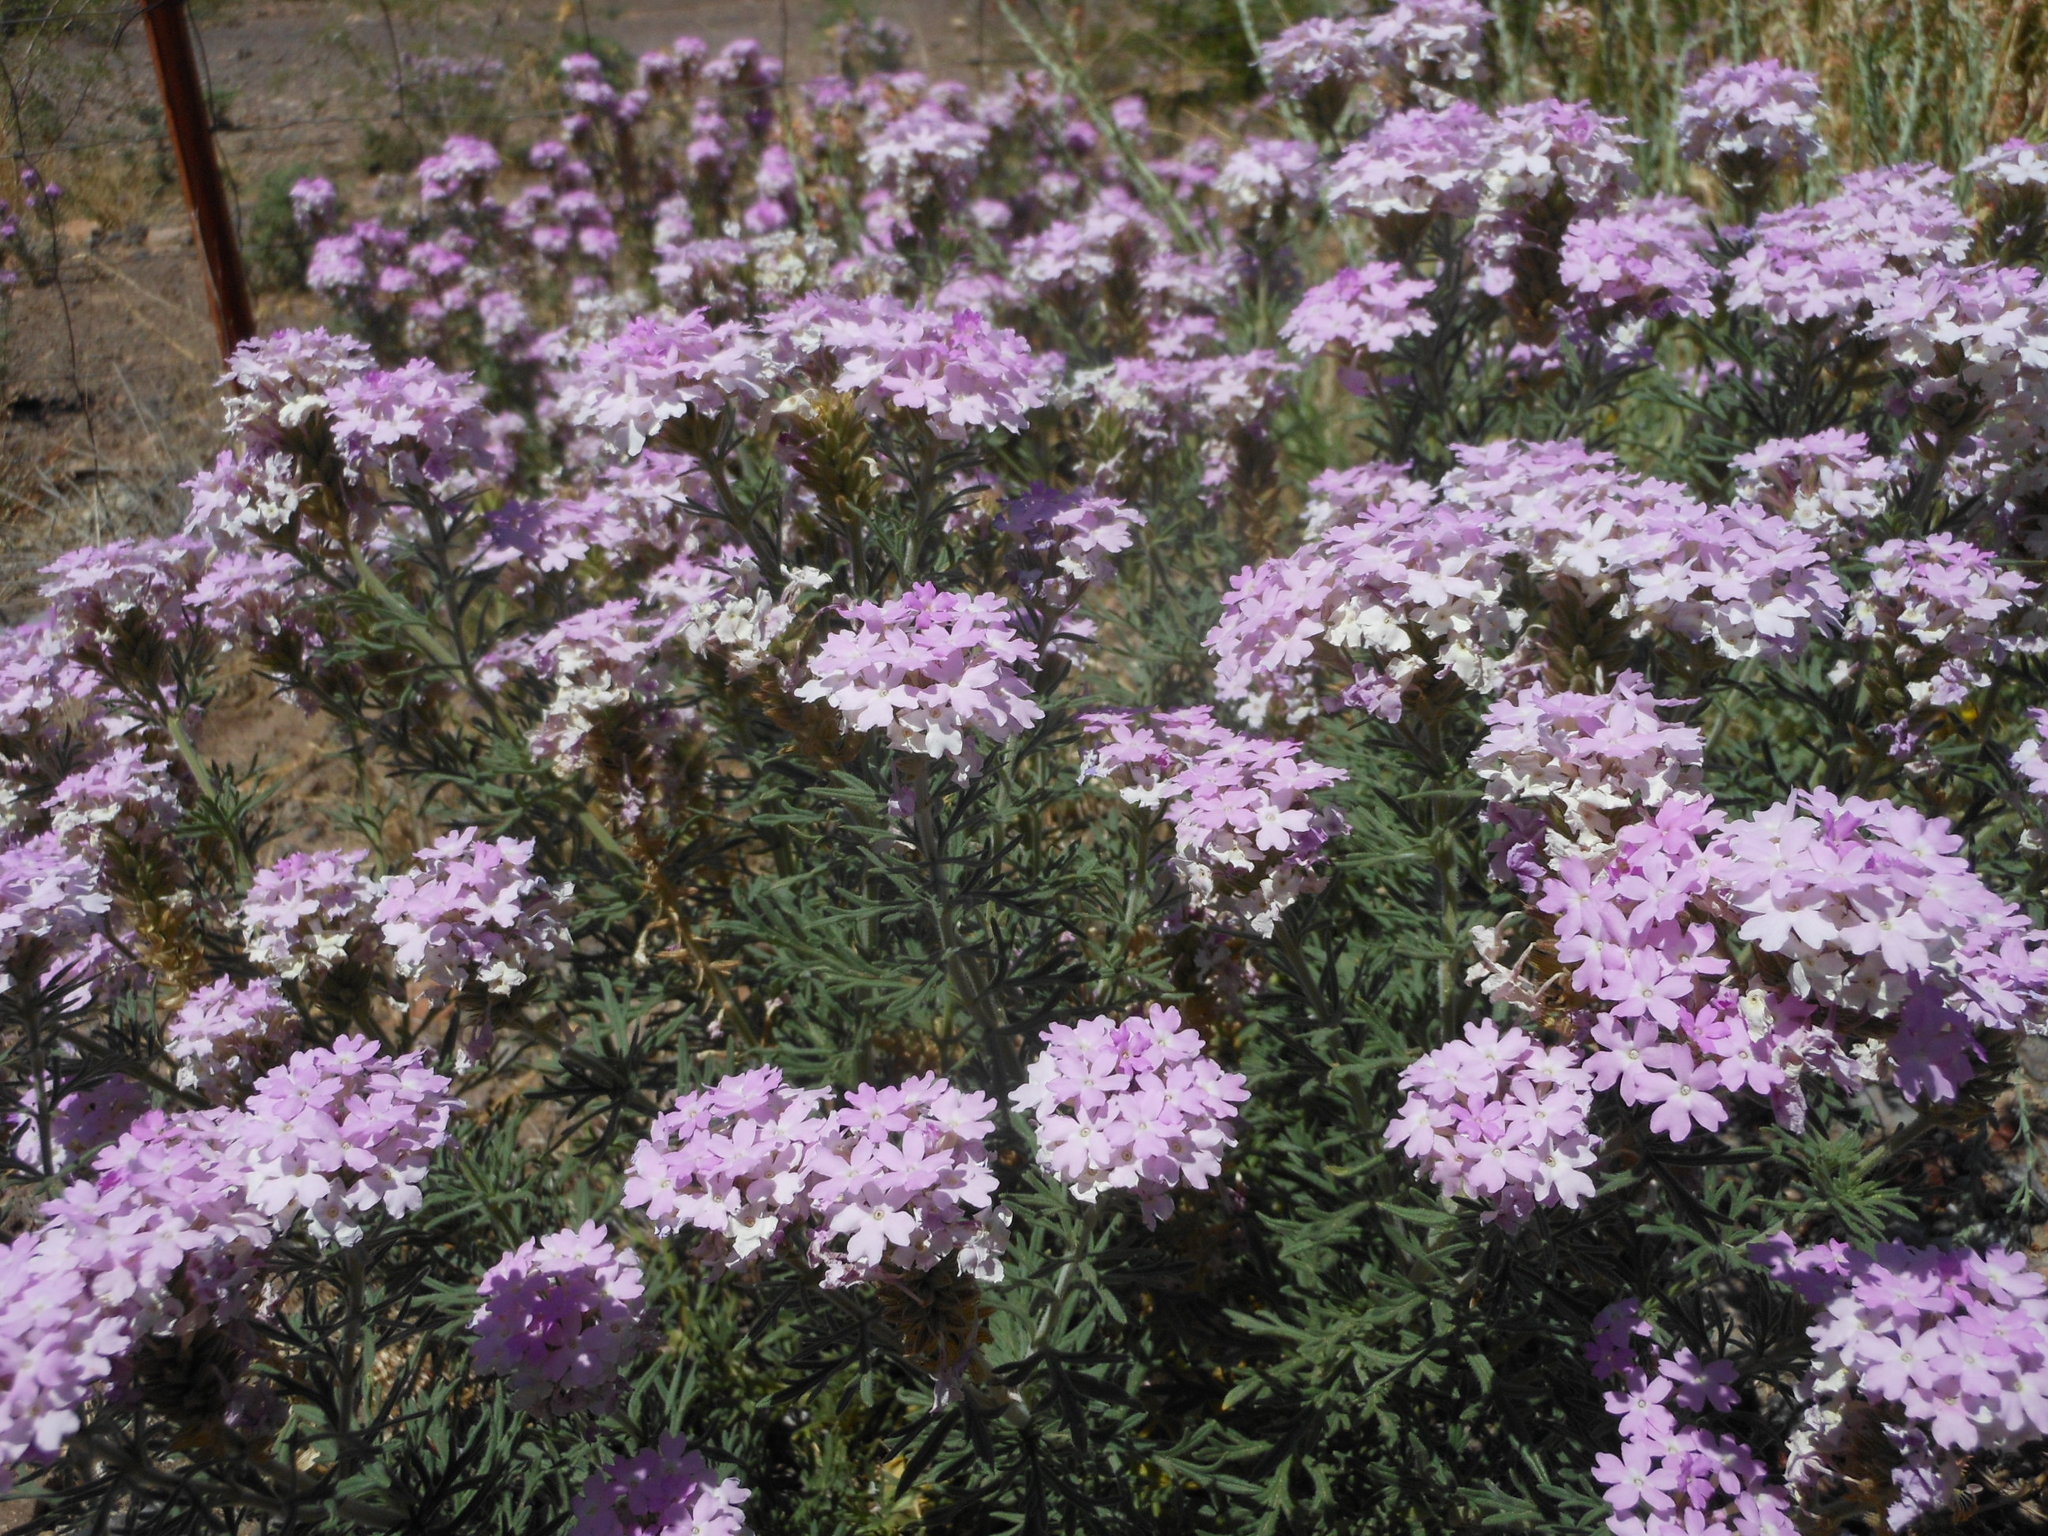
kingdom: Plantae
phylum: Tracheophyta
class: Magnoliopsida
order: Lamiales
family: Verbenaceae
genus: Verbena
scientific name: Verbena bipinnatifida
